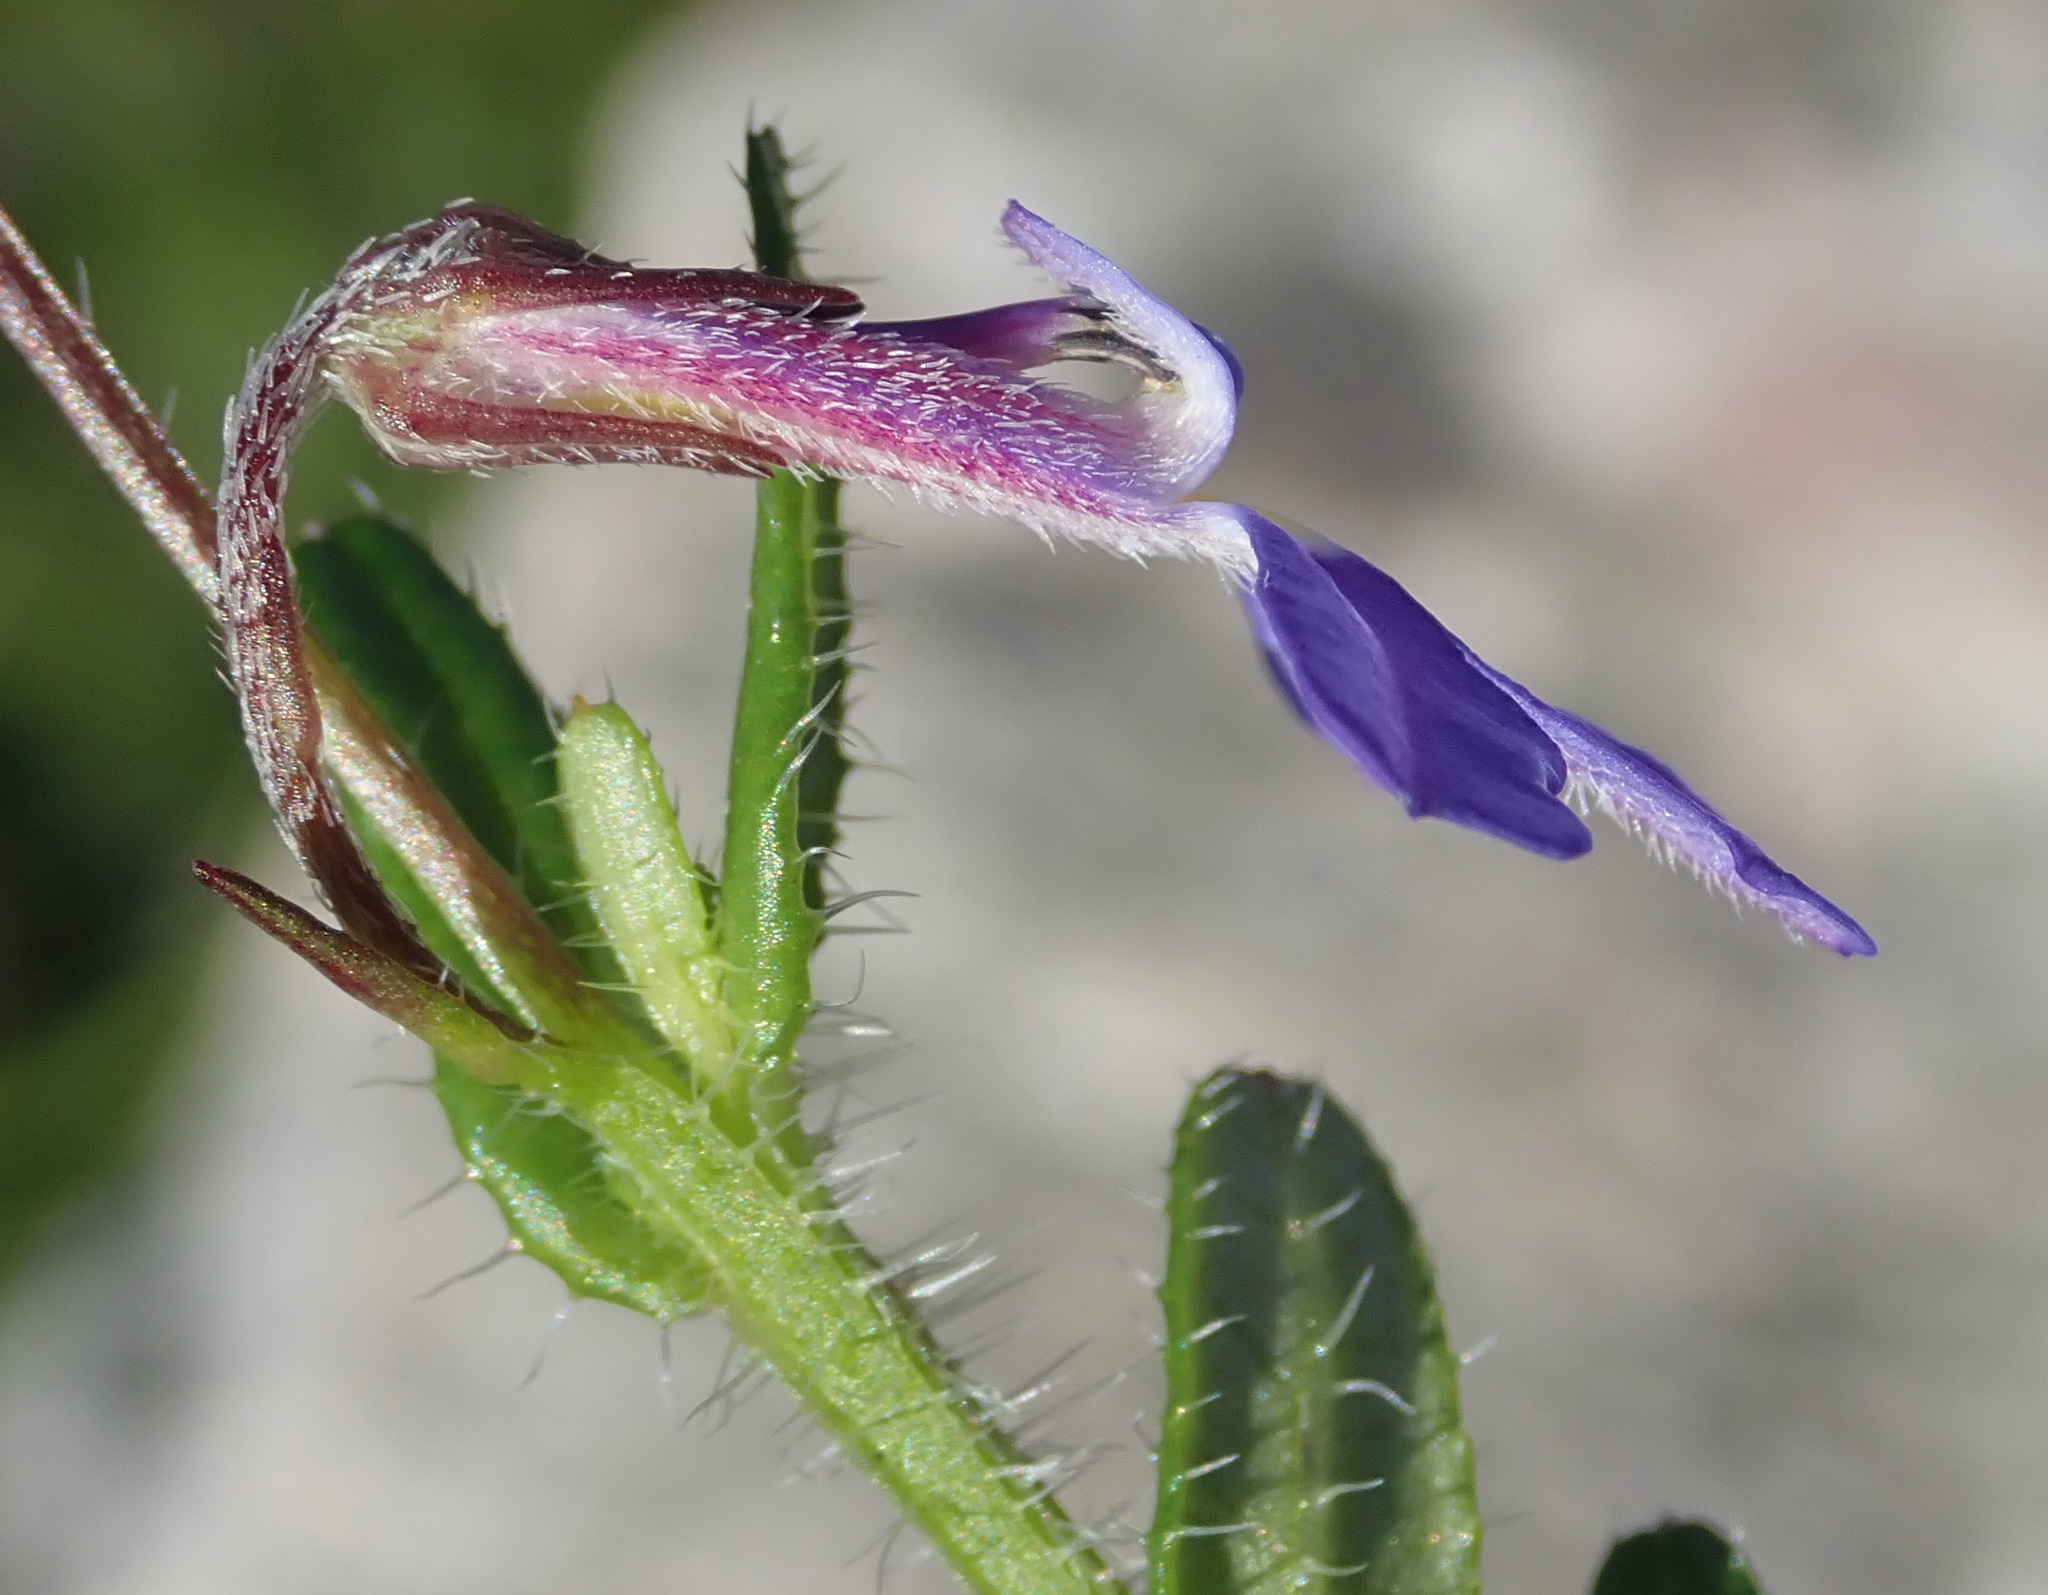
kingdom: Plantae
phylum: Tracheophyta
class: Magnoliopsida
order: Asterales
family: Campanulaceae
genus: Lobelia
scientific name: Lobelia neglecta
